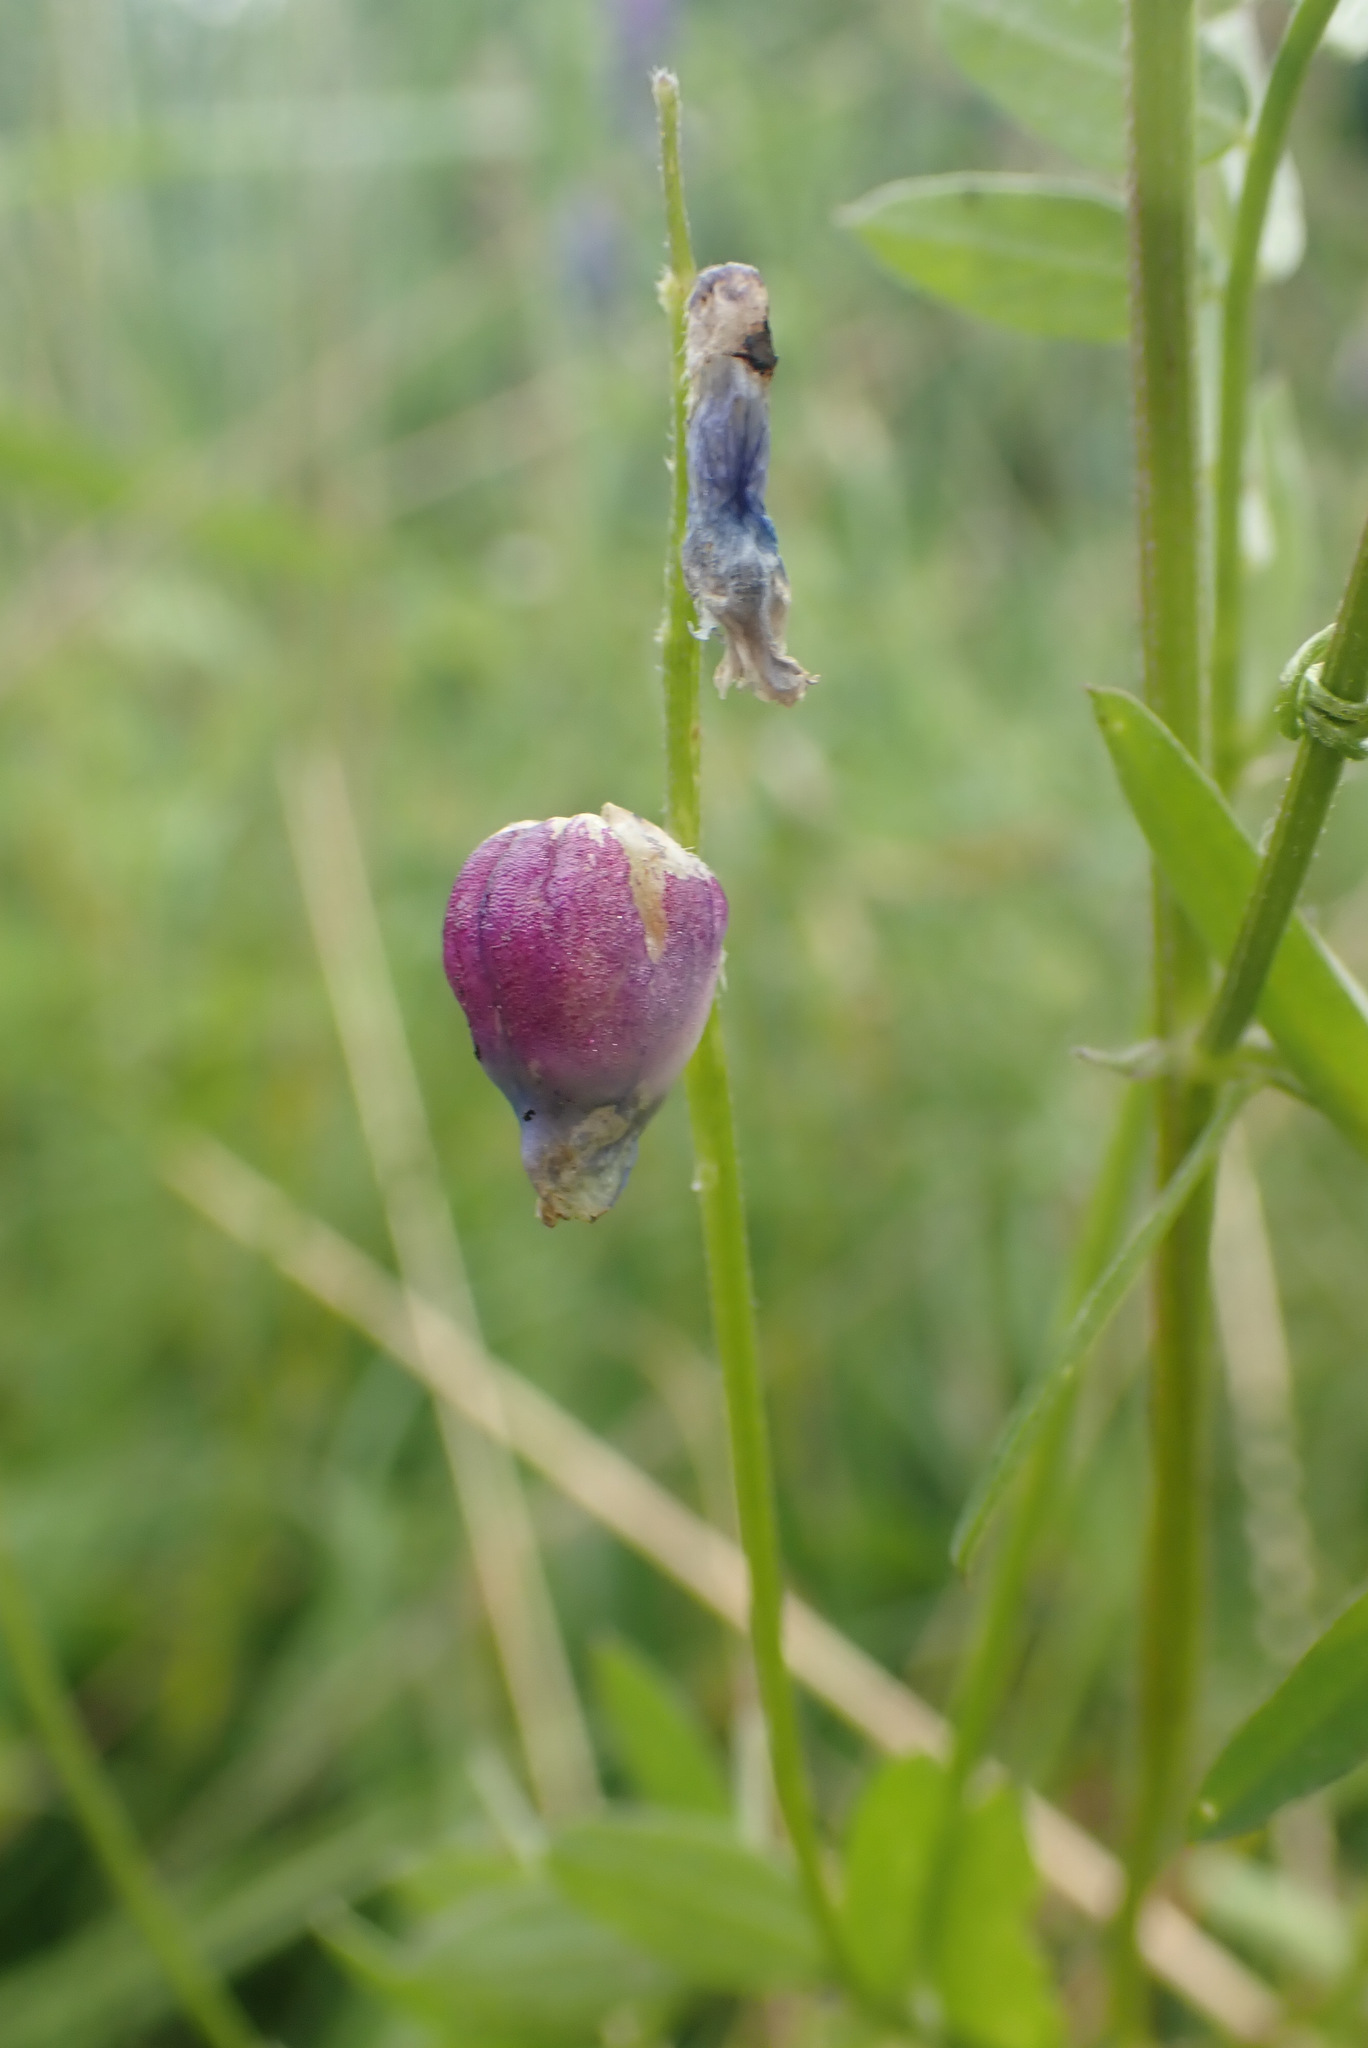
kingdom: Animalia
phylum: Arthropoda
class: Insecta
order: Diptera
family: Cecidomyiidae
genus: Contarinia
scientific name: Contarinia craccae
